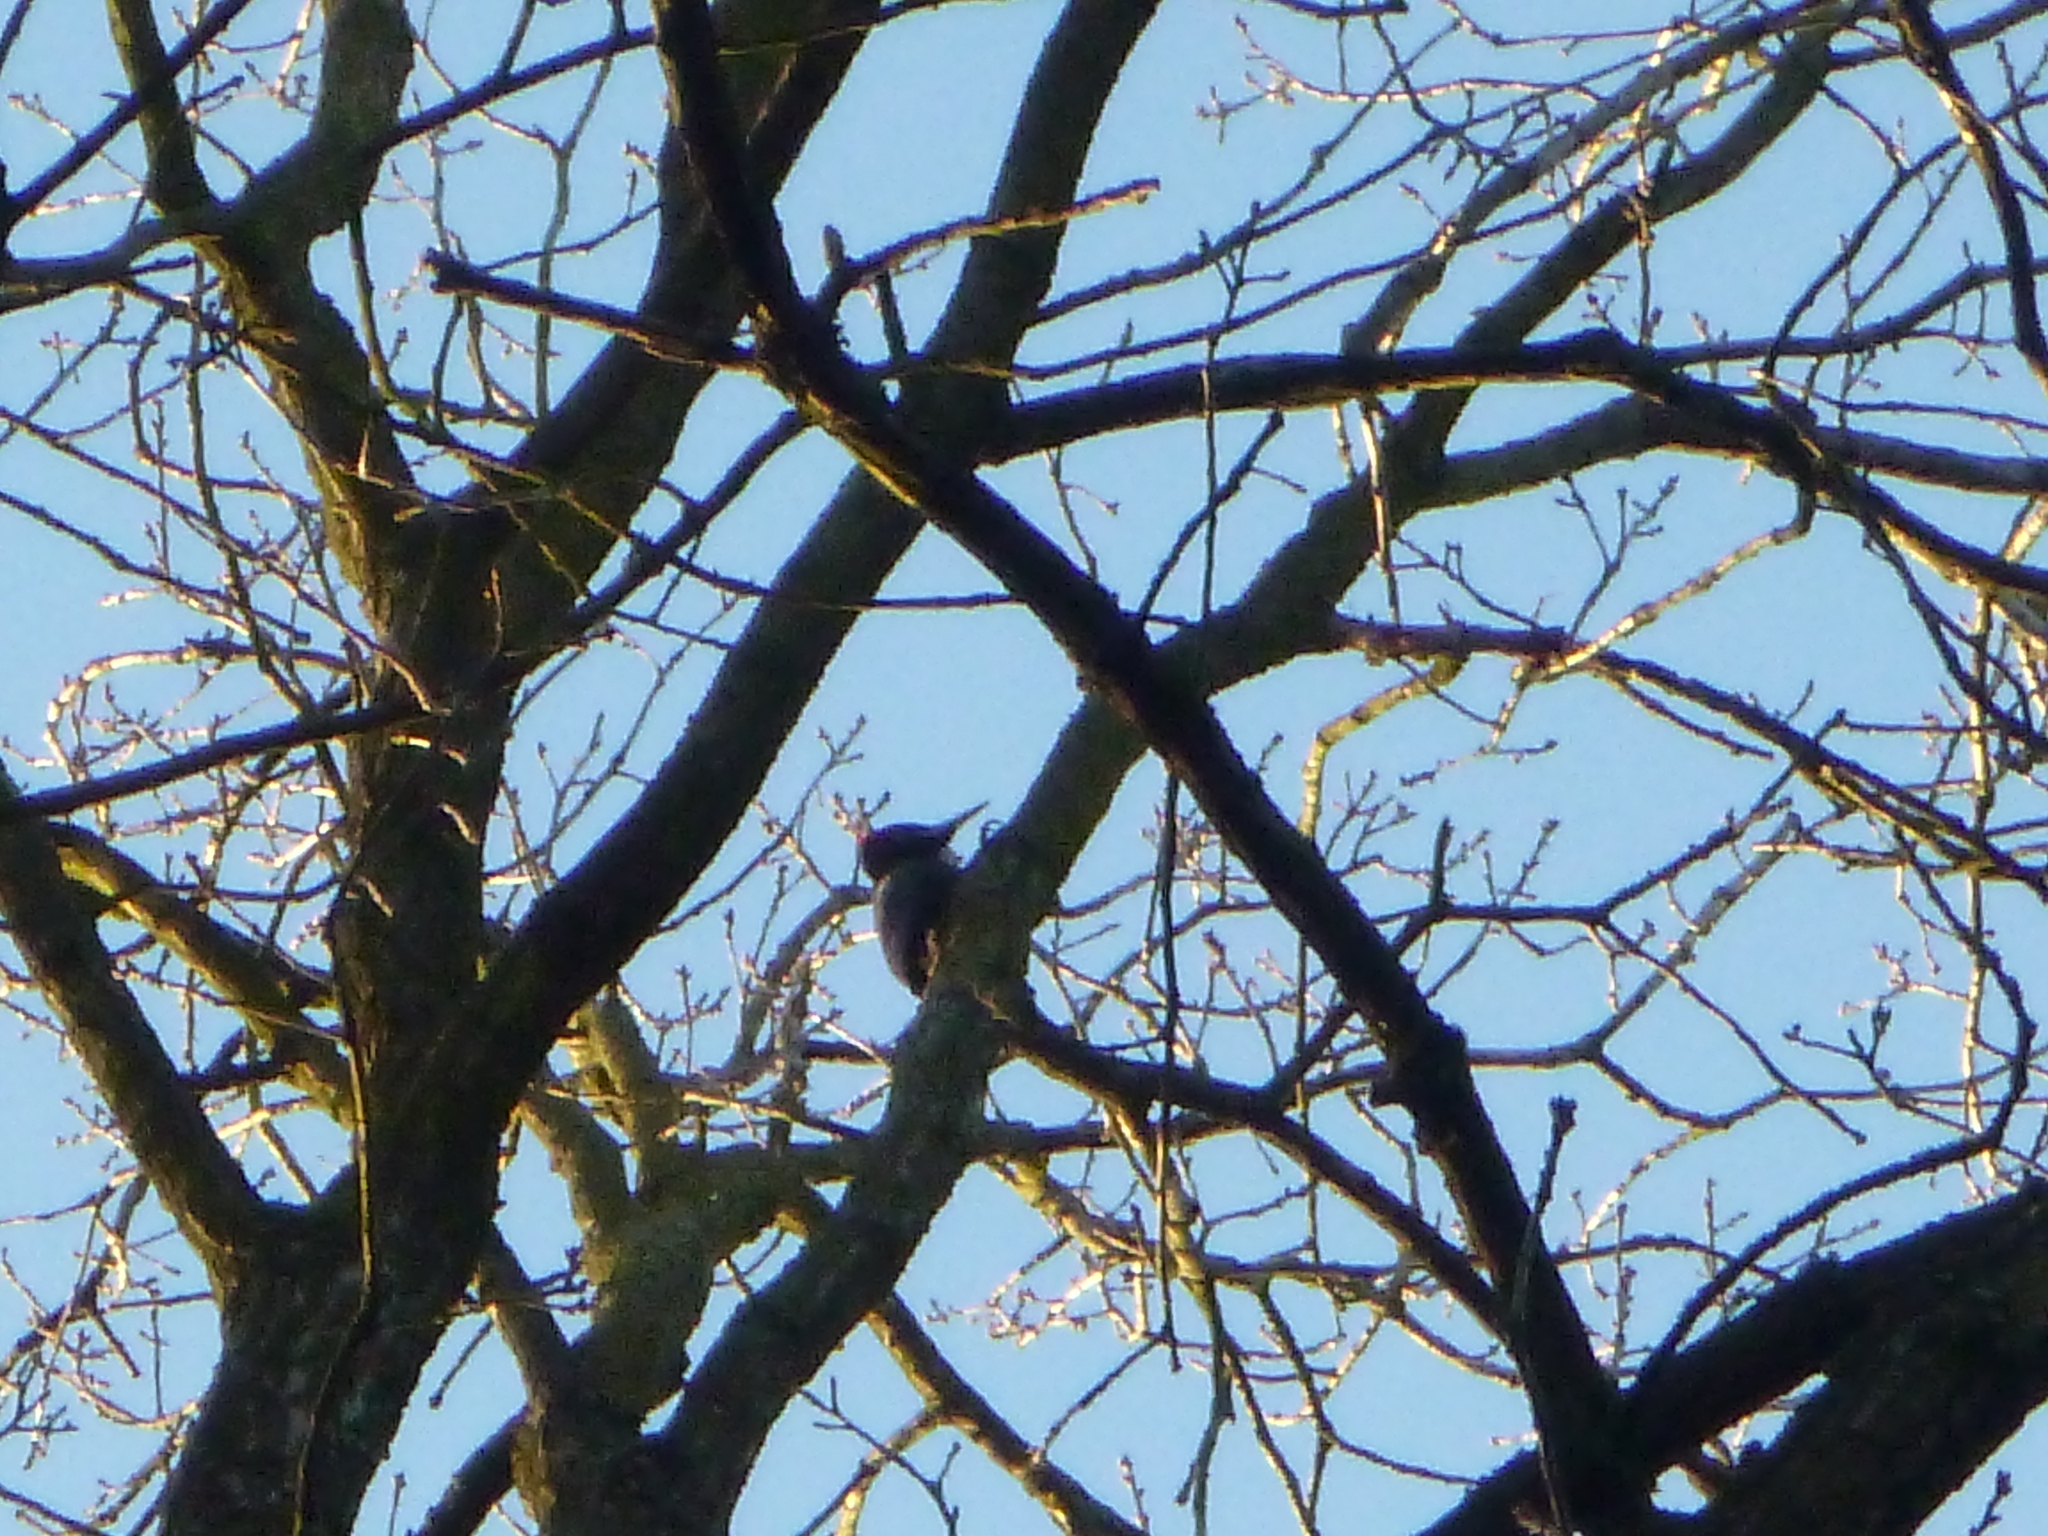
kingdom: Animalia
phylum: Chordata
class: Aves
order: Piciformes
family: Picidae
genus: Dryocopus
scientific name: Dryocopus martius
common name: Black woodpecker
